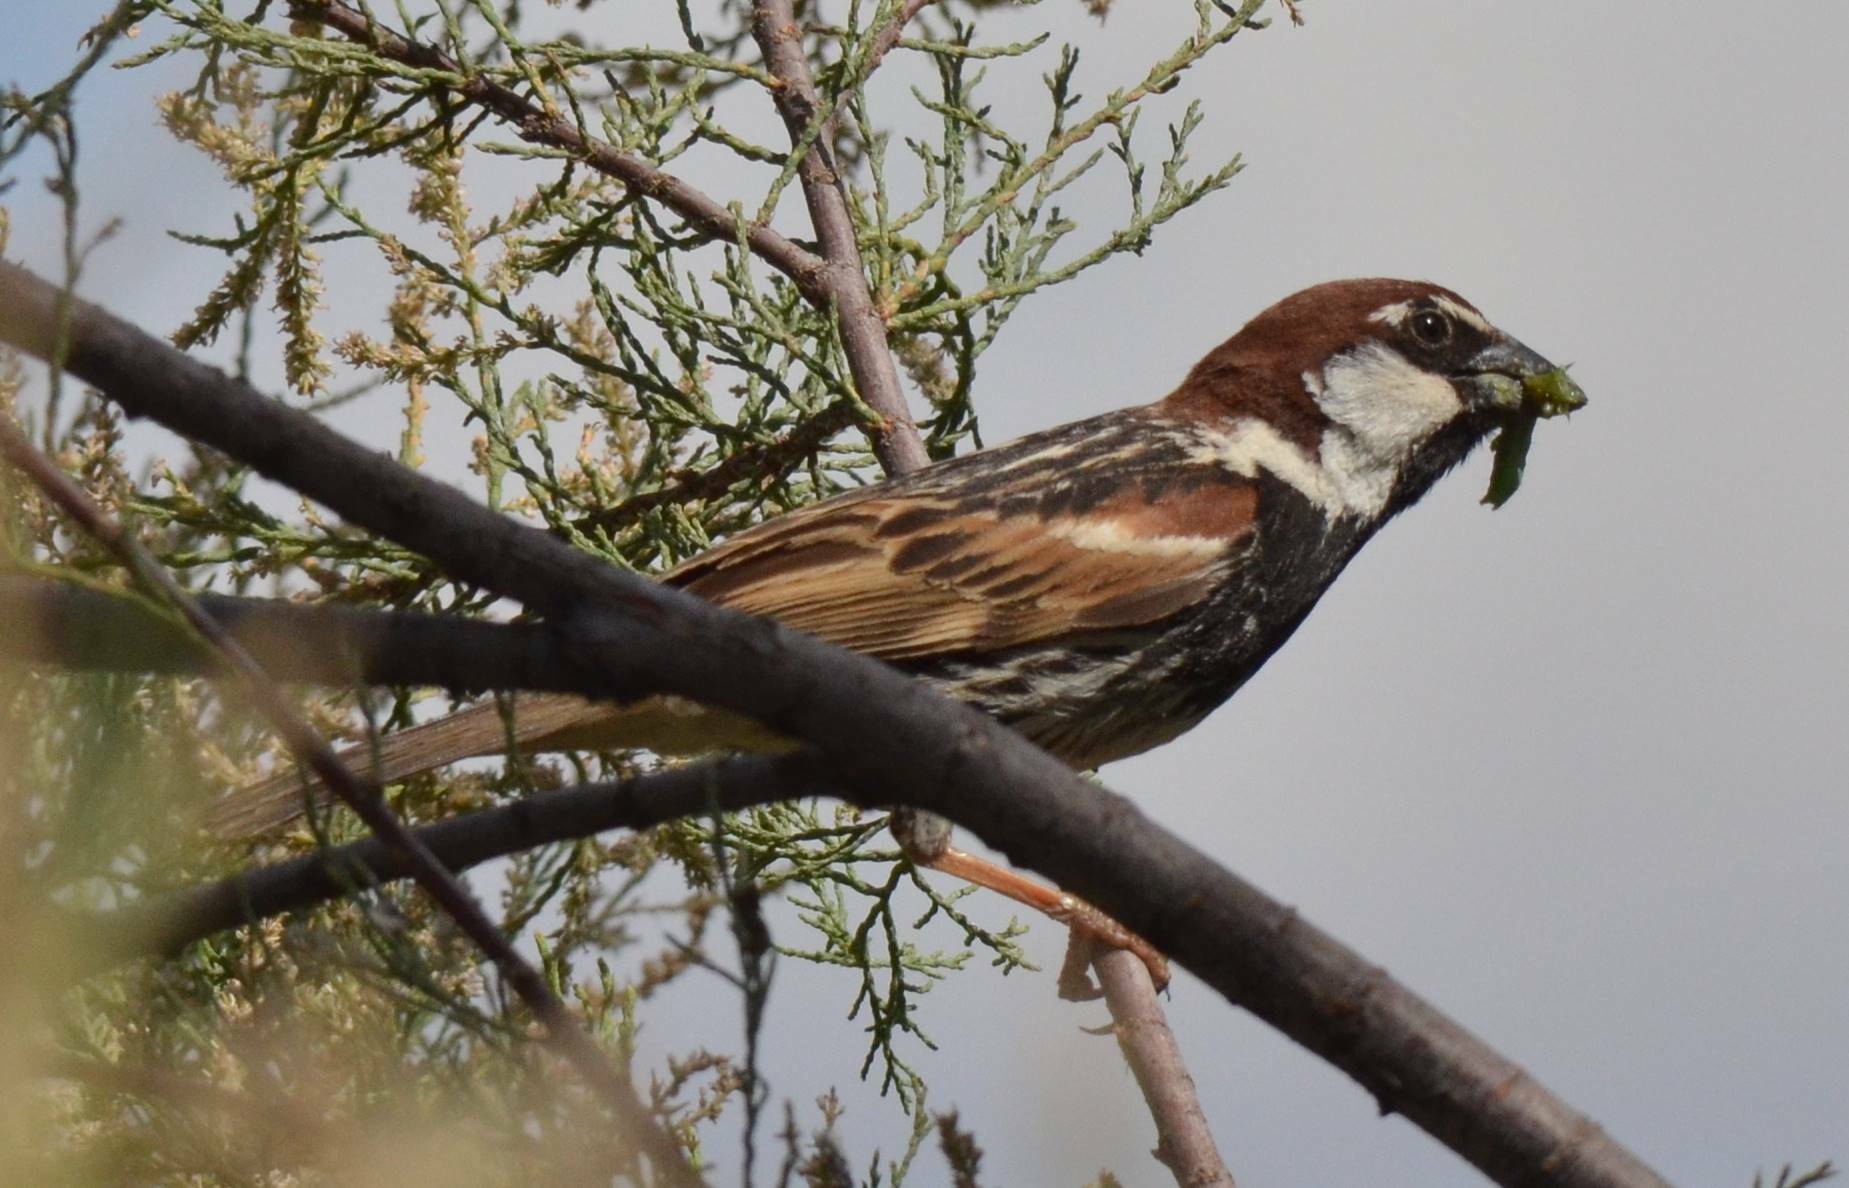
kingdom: Animalia
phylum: Chordata
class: Aves
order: Passeriformes
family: Passeridae
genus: Passer
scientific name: Passer hispaniolensis
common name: Spanish sparrow
